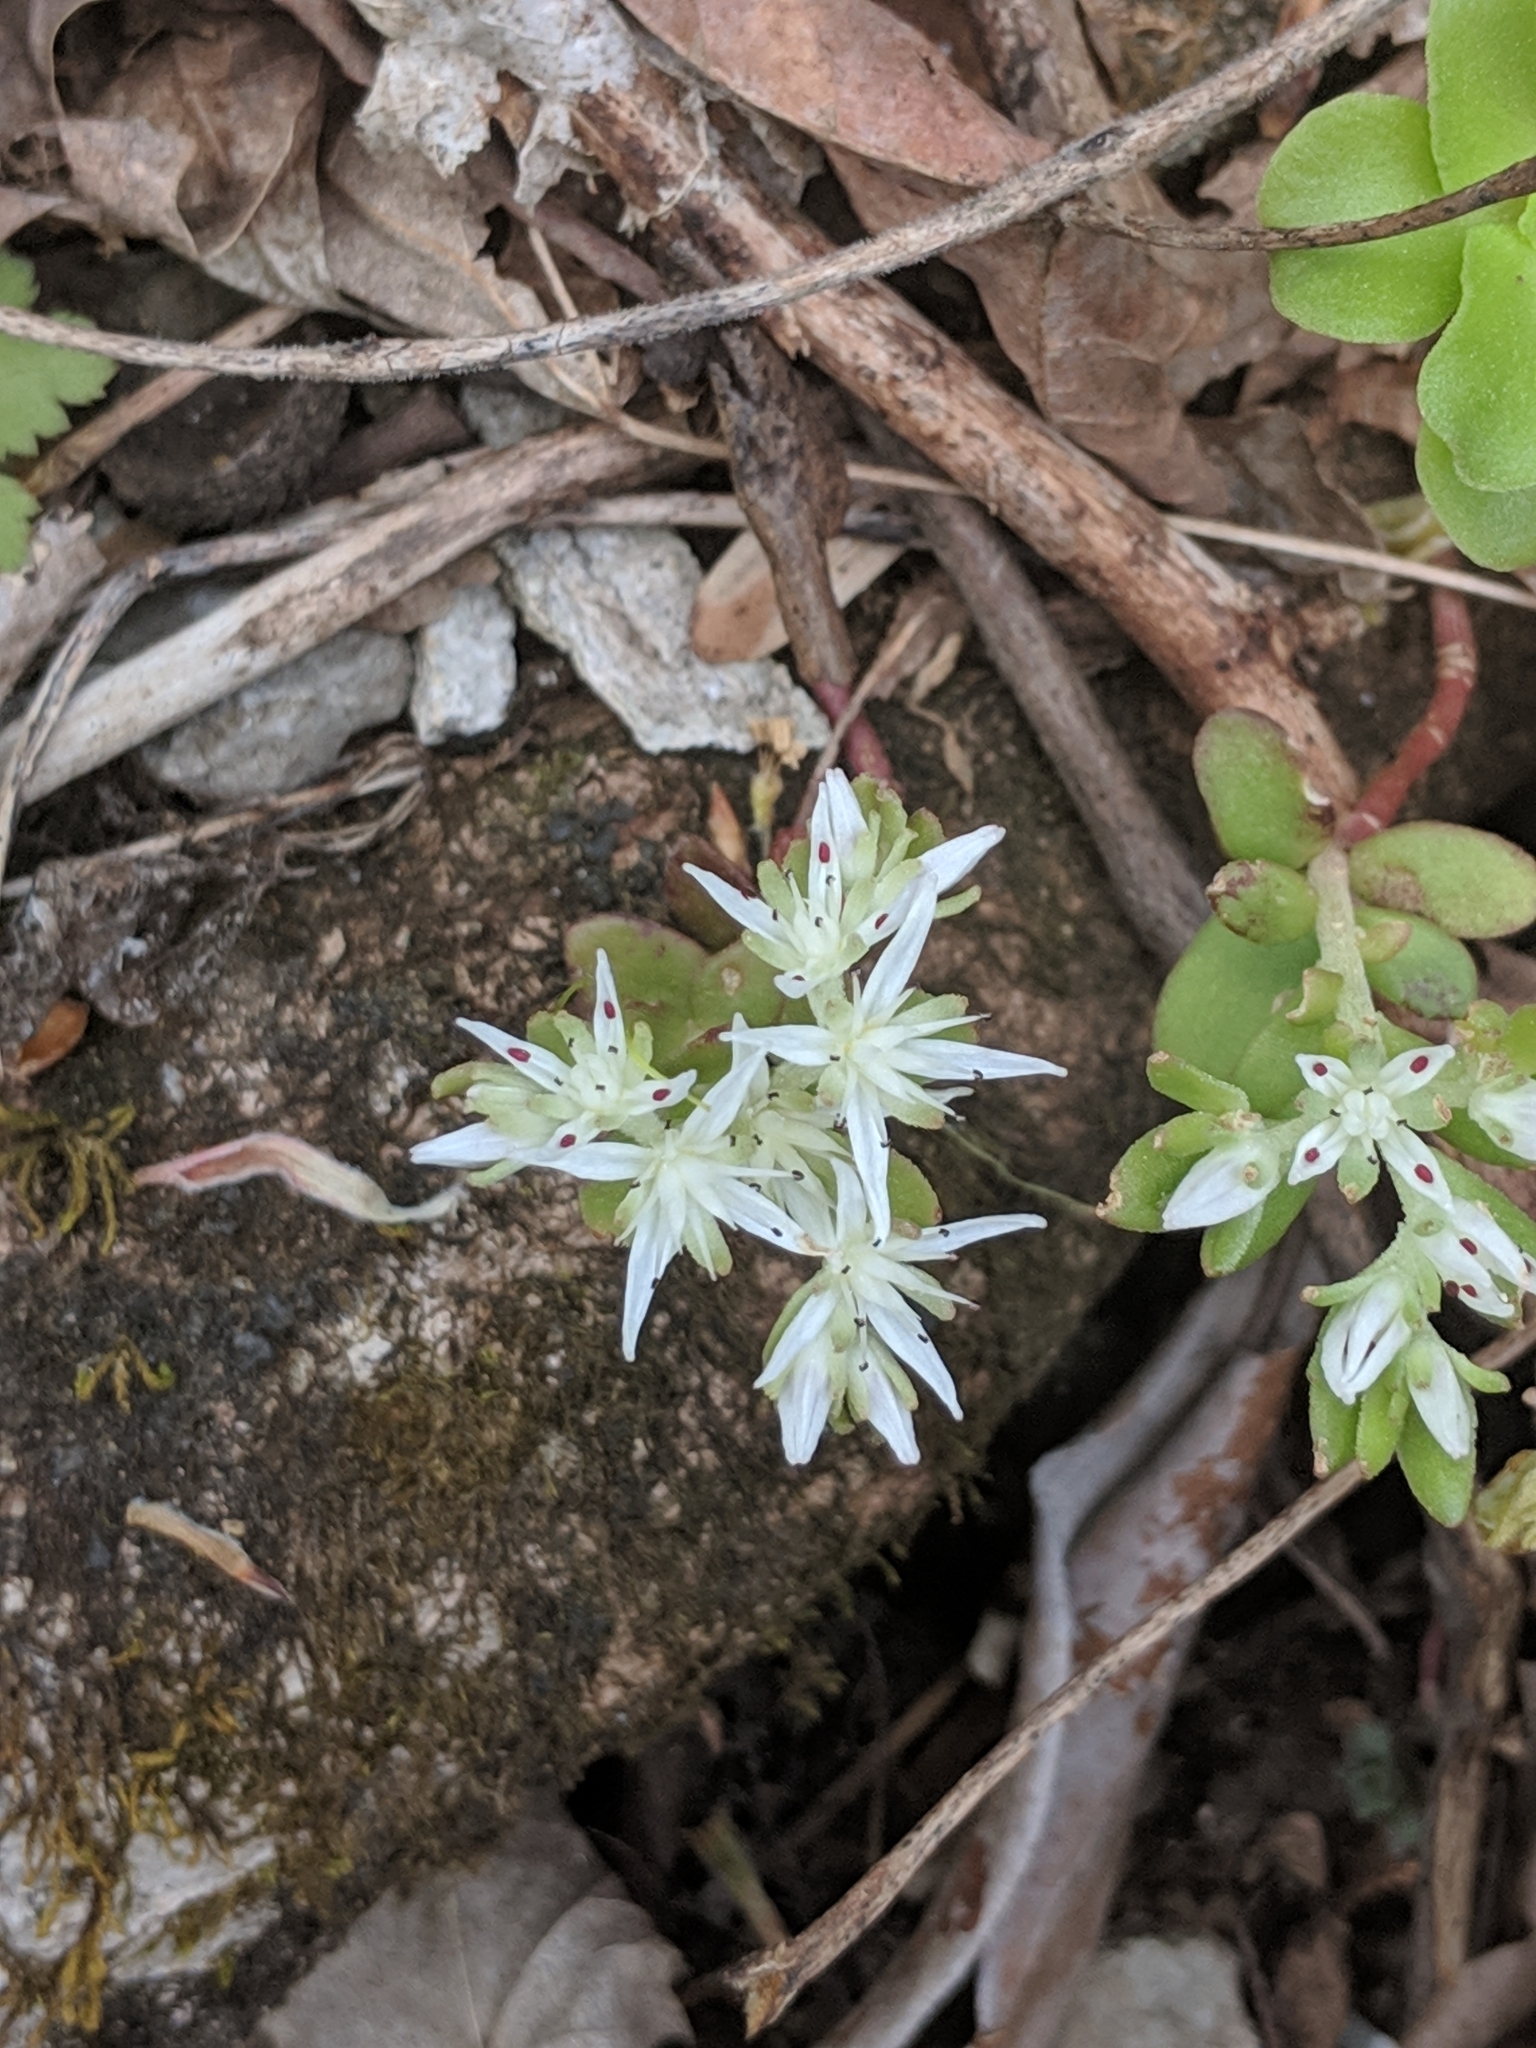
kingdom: Plantae
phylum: Tracheophyta
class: Magnoliopsida
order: Saxifragales
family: Crassulaceae
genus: Sedum
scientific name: Sedum ternatum
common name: Wild stonecrop
